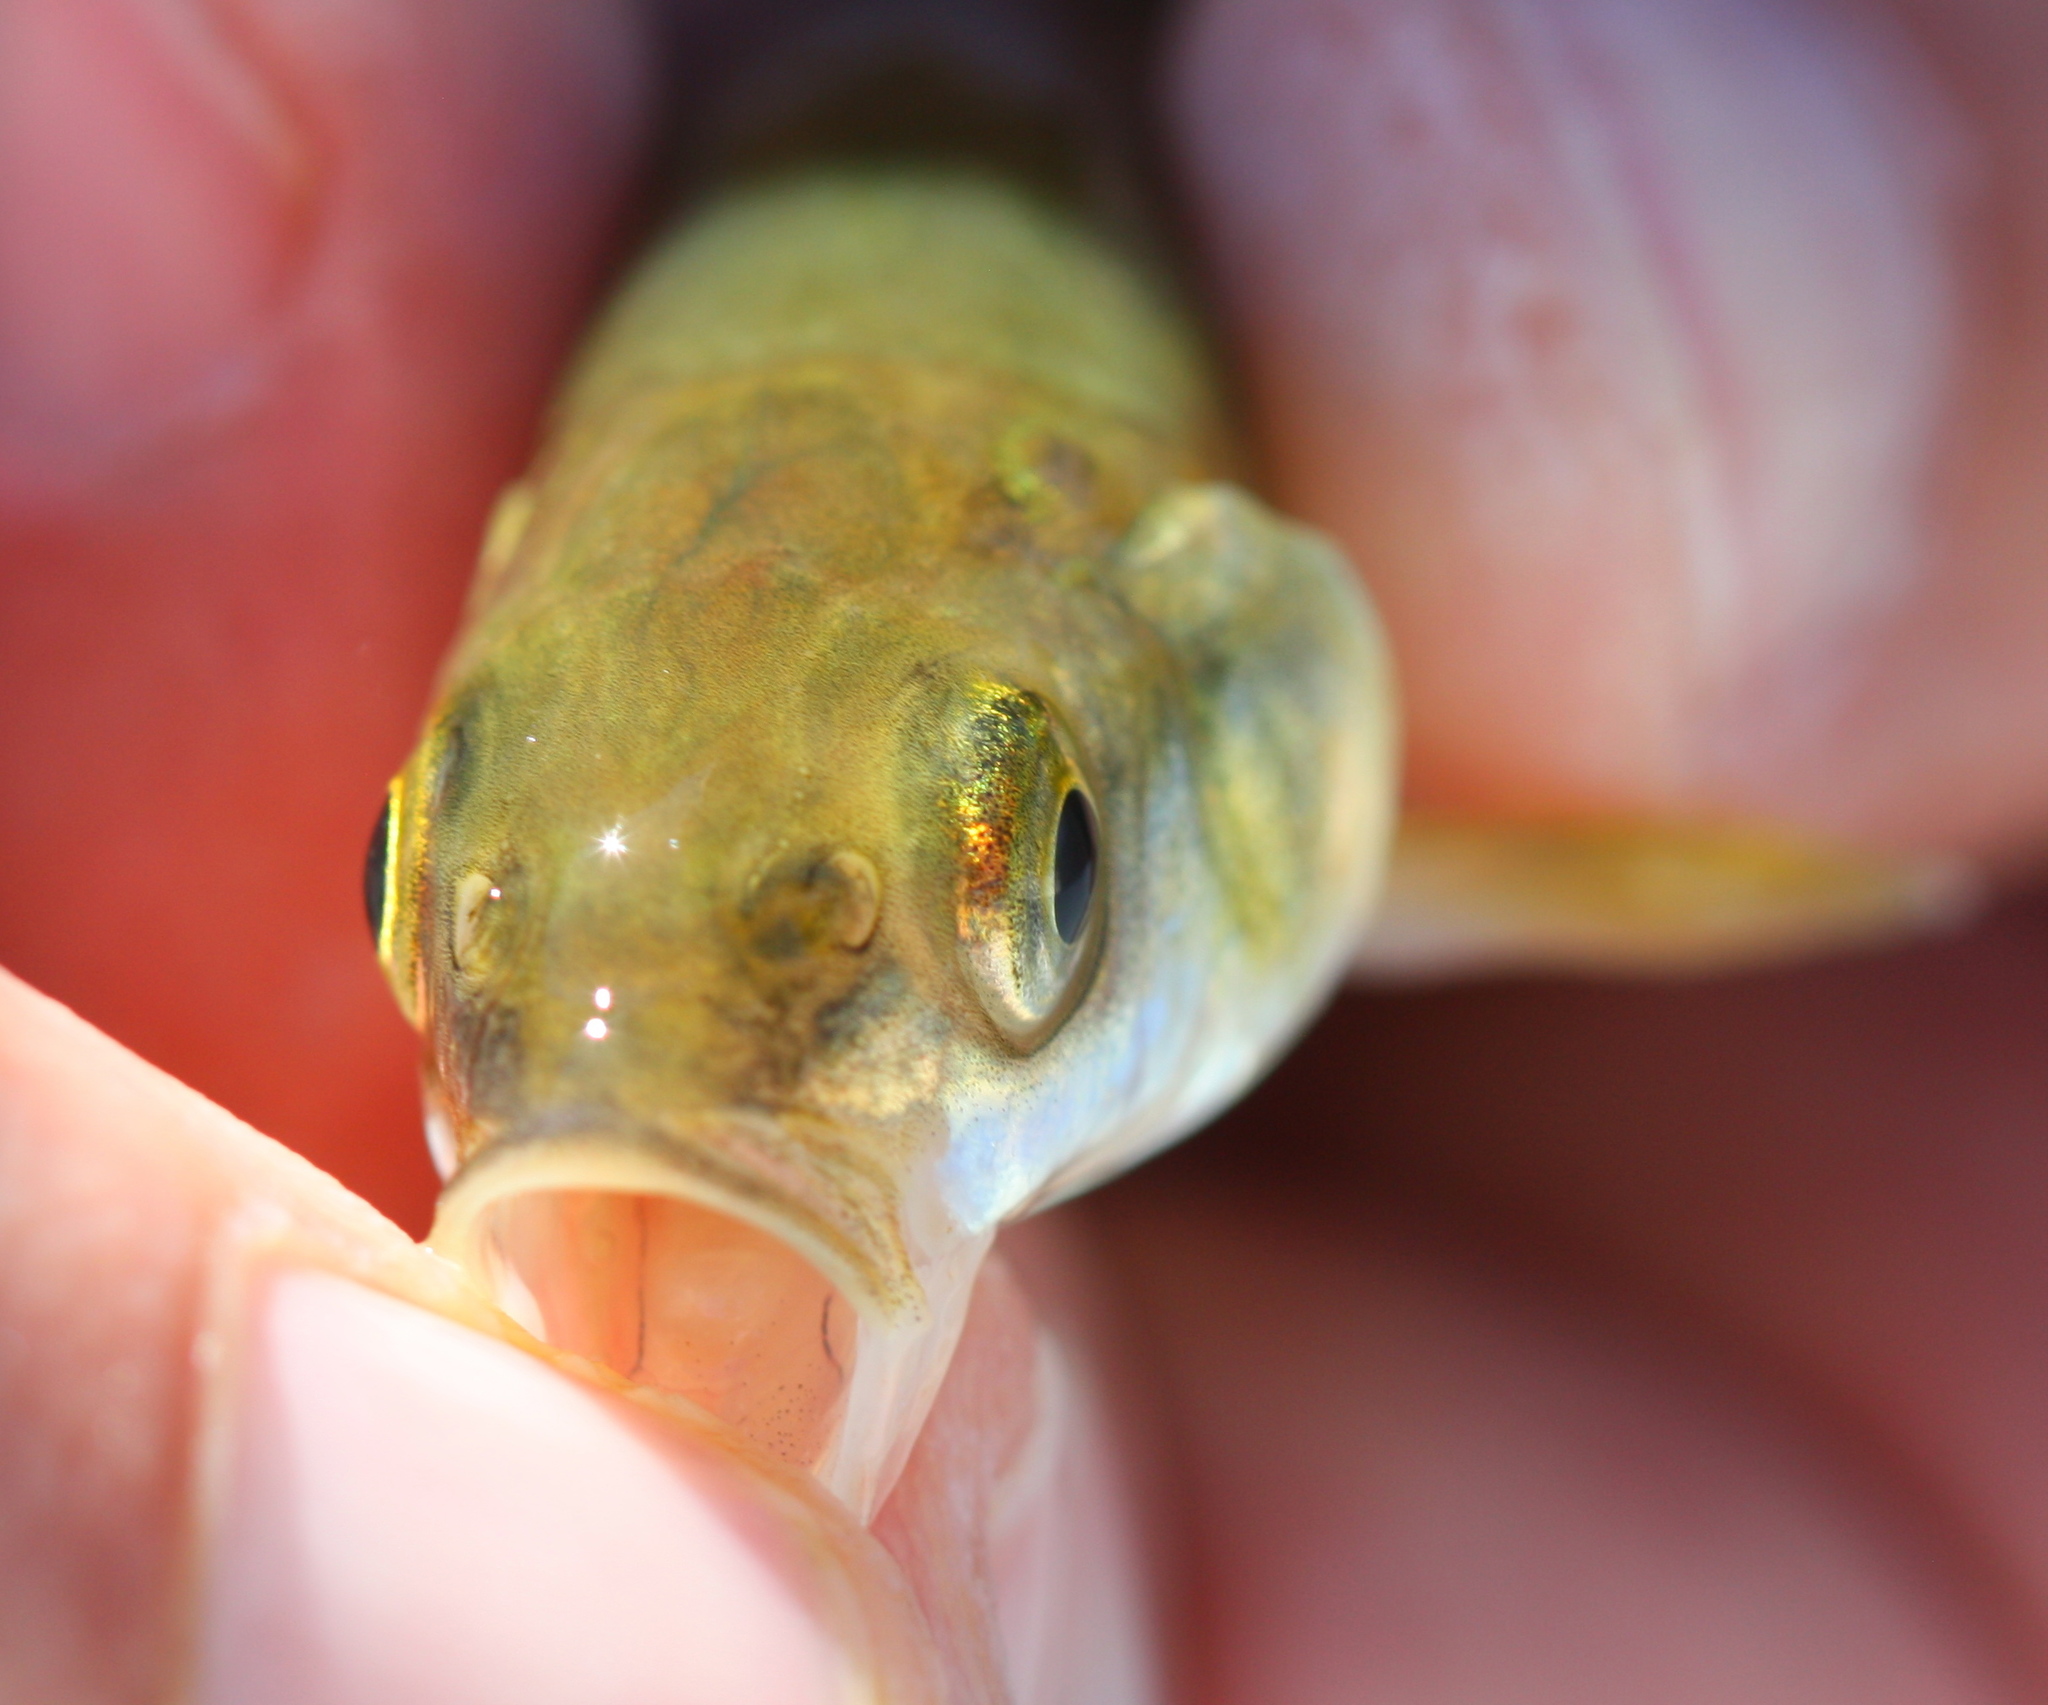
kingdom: Animalia
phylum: Chordata
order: Cypriniformes
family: Cyprinidae
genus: Mylopharodon
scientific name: Mylopharodon conocephalus
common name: Hardhead
